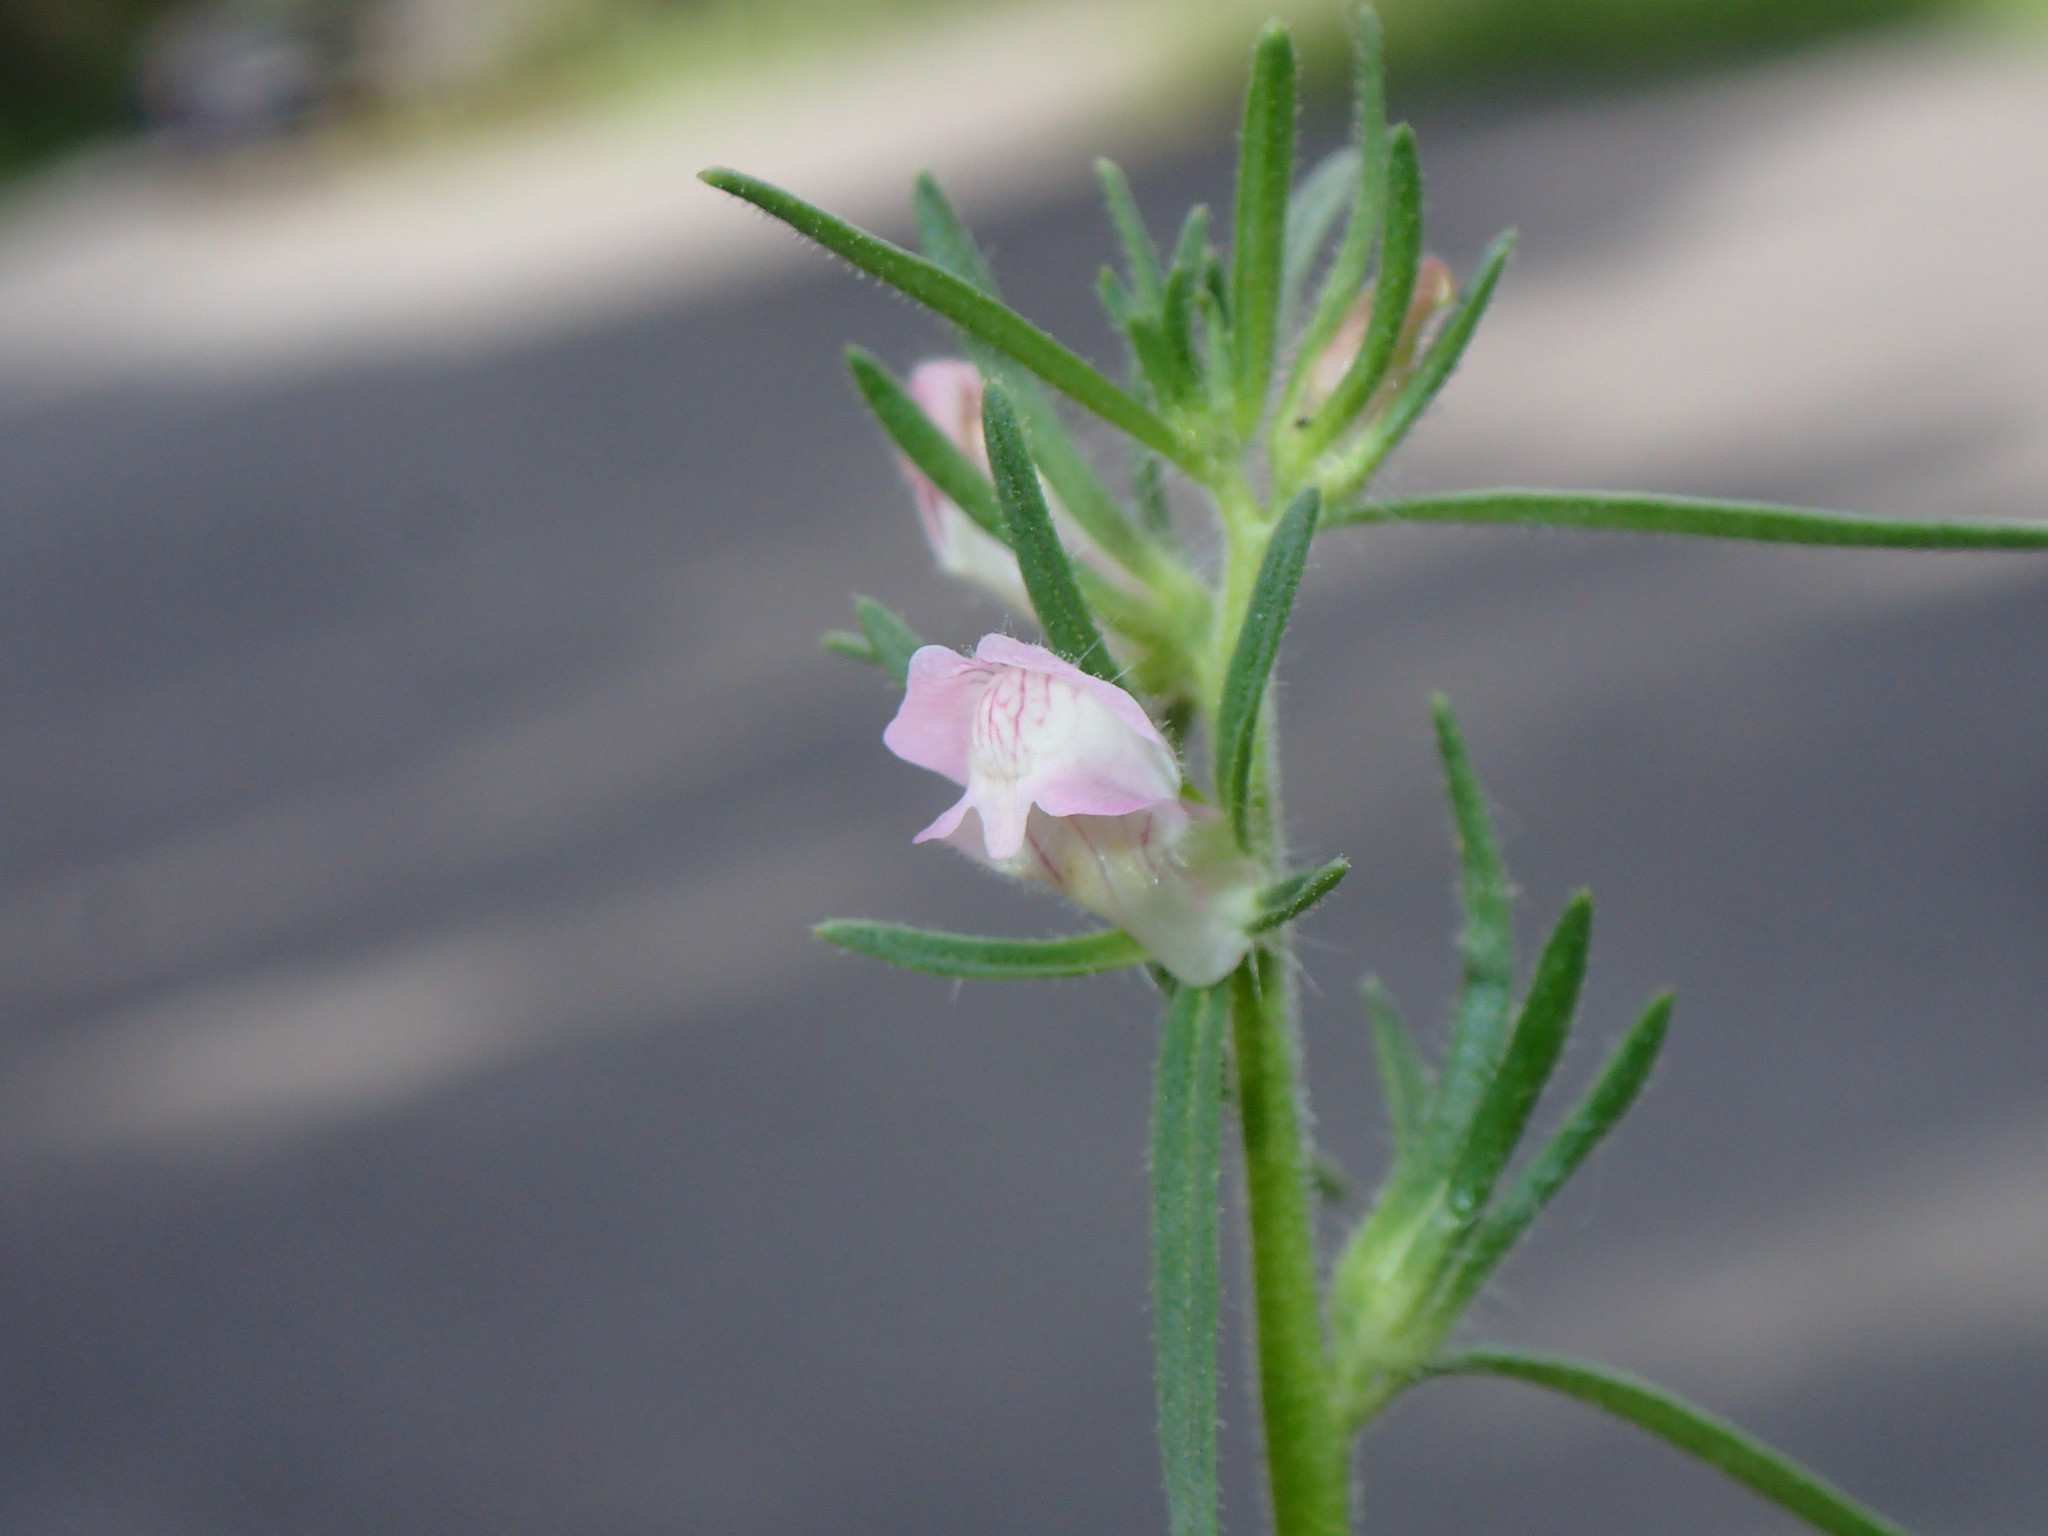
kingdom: Plantae
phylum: Tracheophyta
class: Magnoliopsida
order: Lamiales
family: Plantaginaceae
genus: Misopates
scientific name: Misopates orontium
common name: Weasel's-snout
